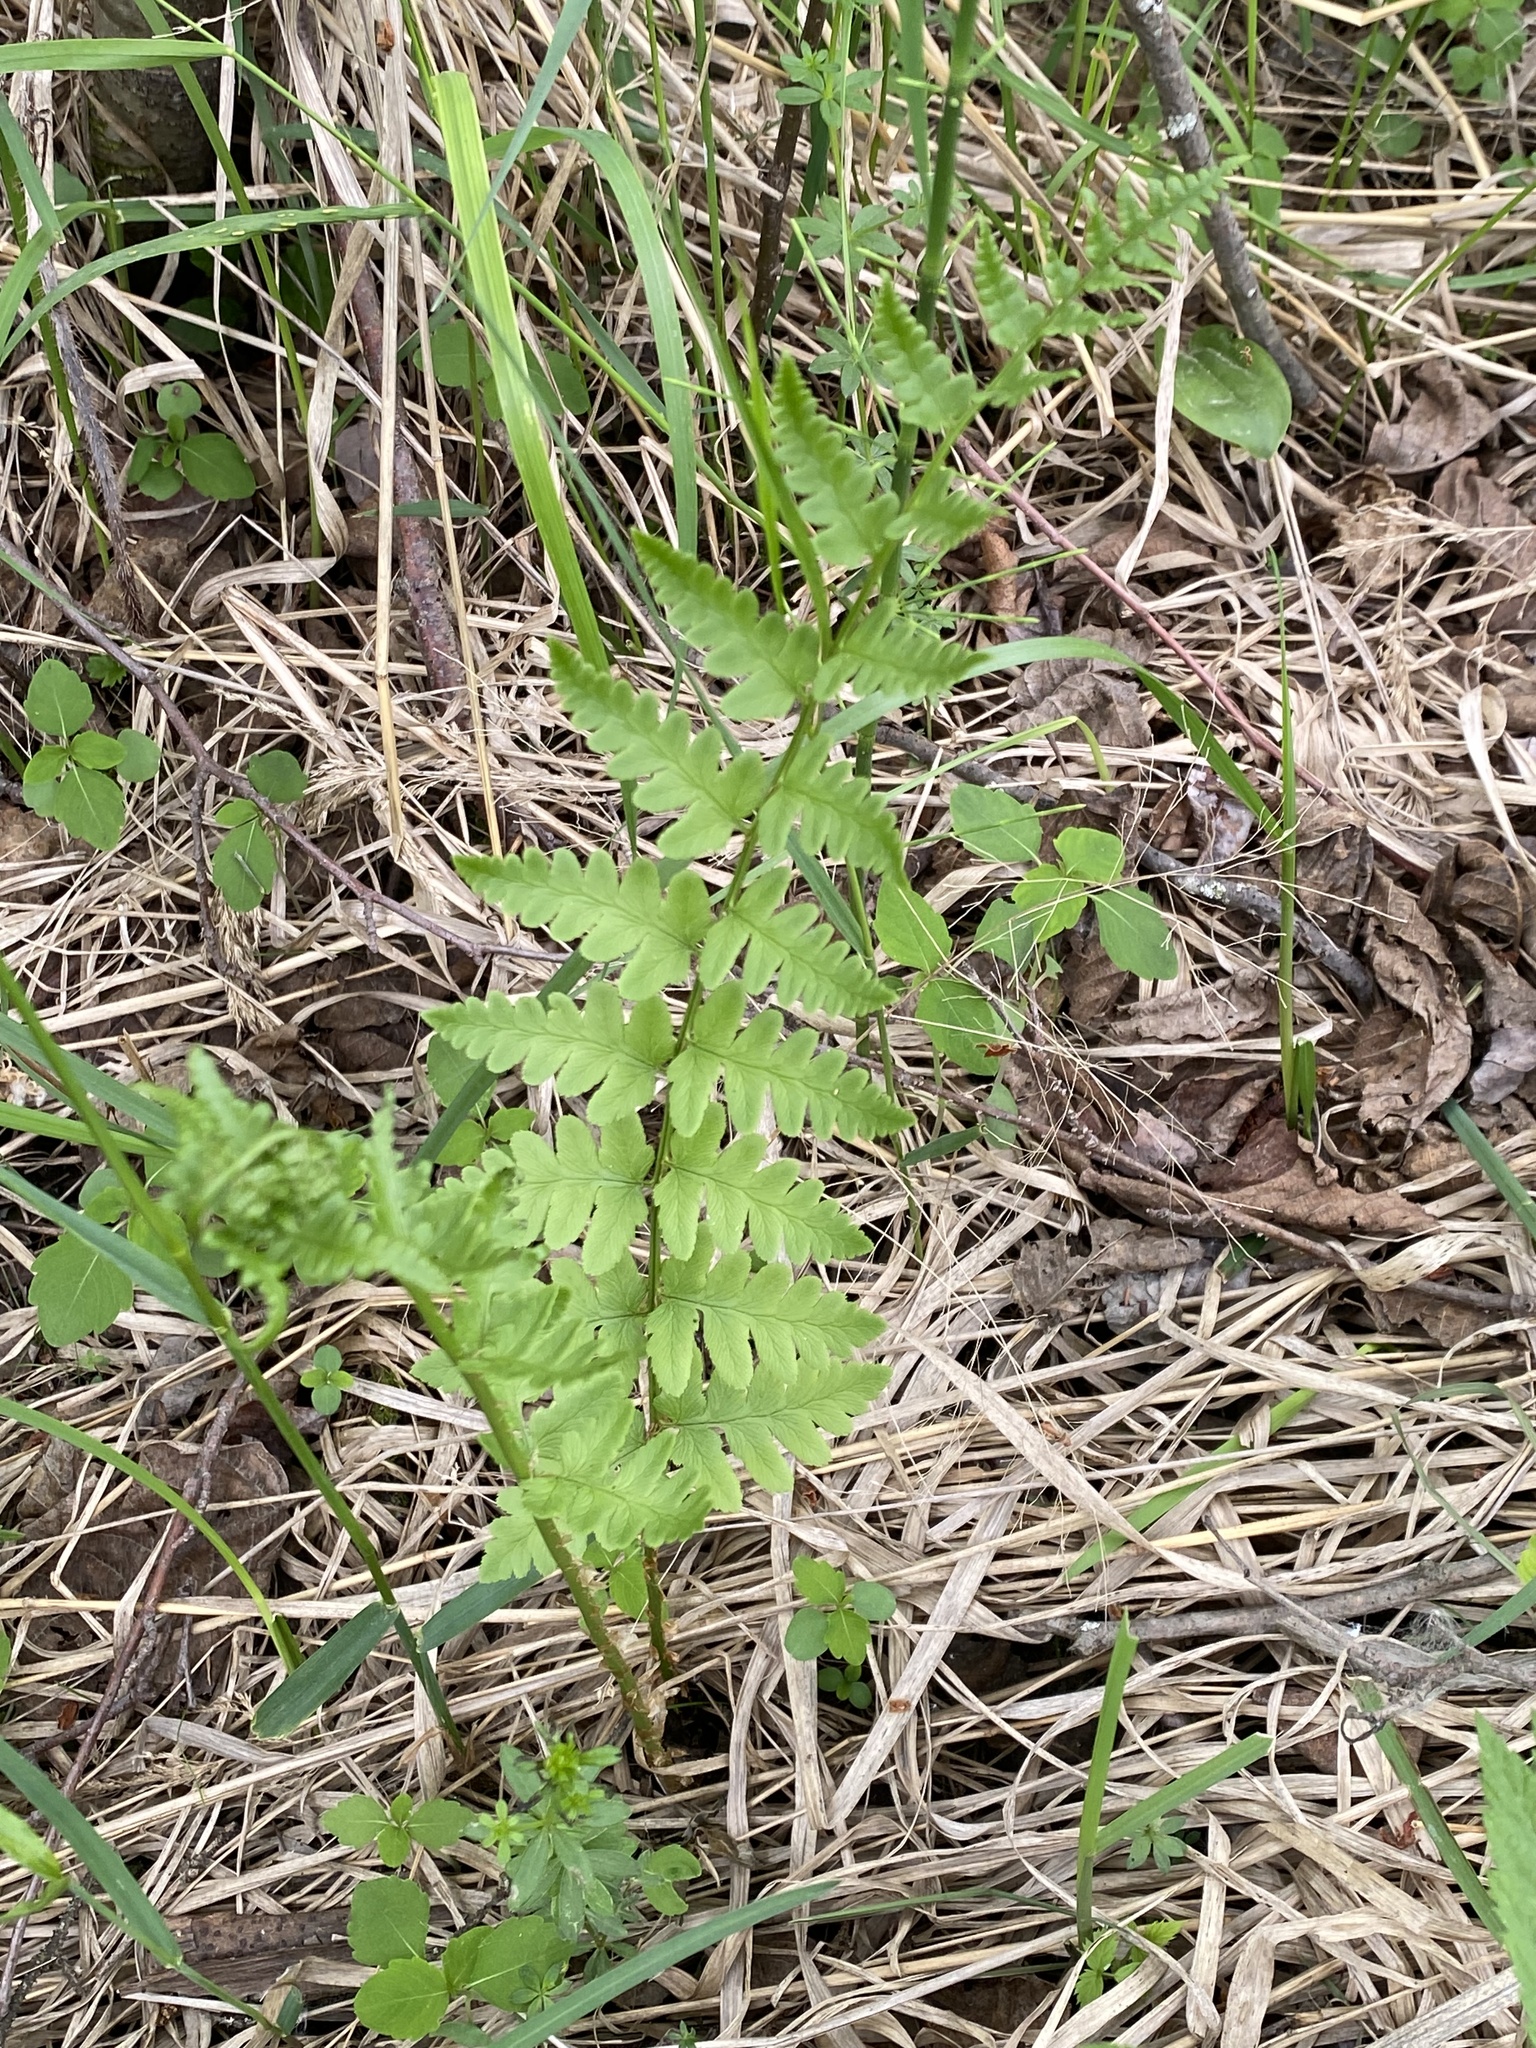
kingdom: Plantae
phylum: Tracheophyta
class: Polypodiopsida
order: Polypodiales
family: Dryopteridaceae
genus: Dryopteris
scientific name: Dryopteris cristata
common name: Crested wood fern
